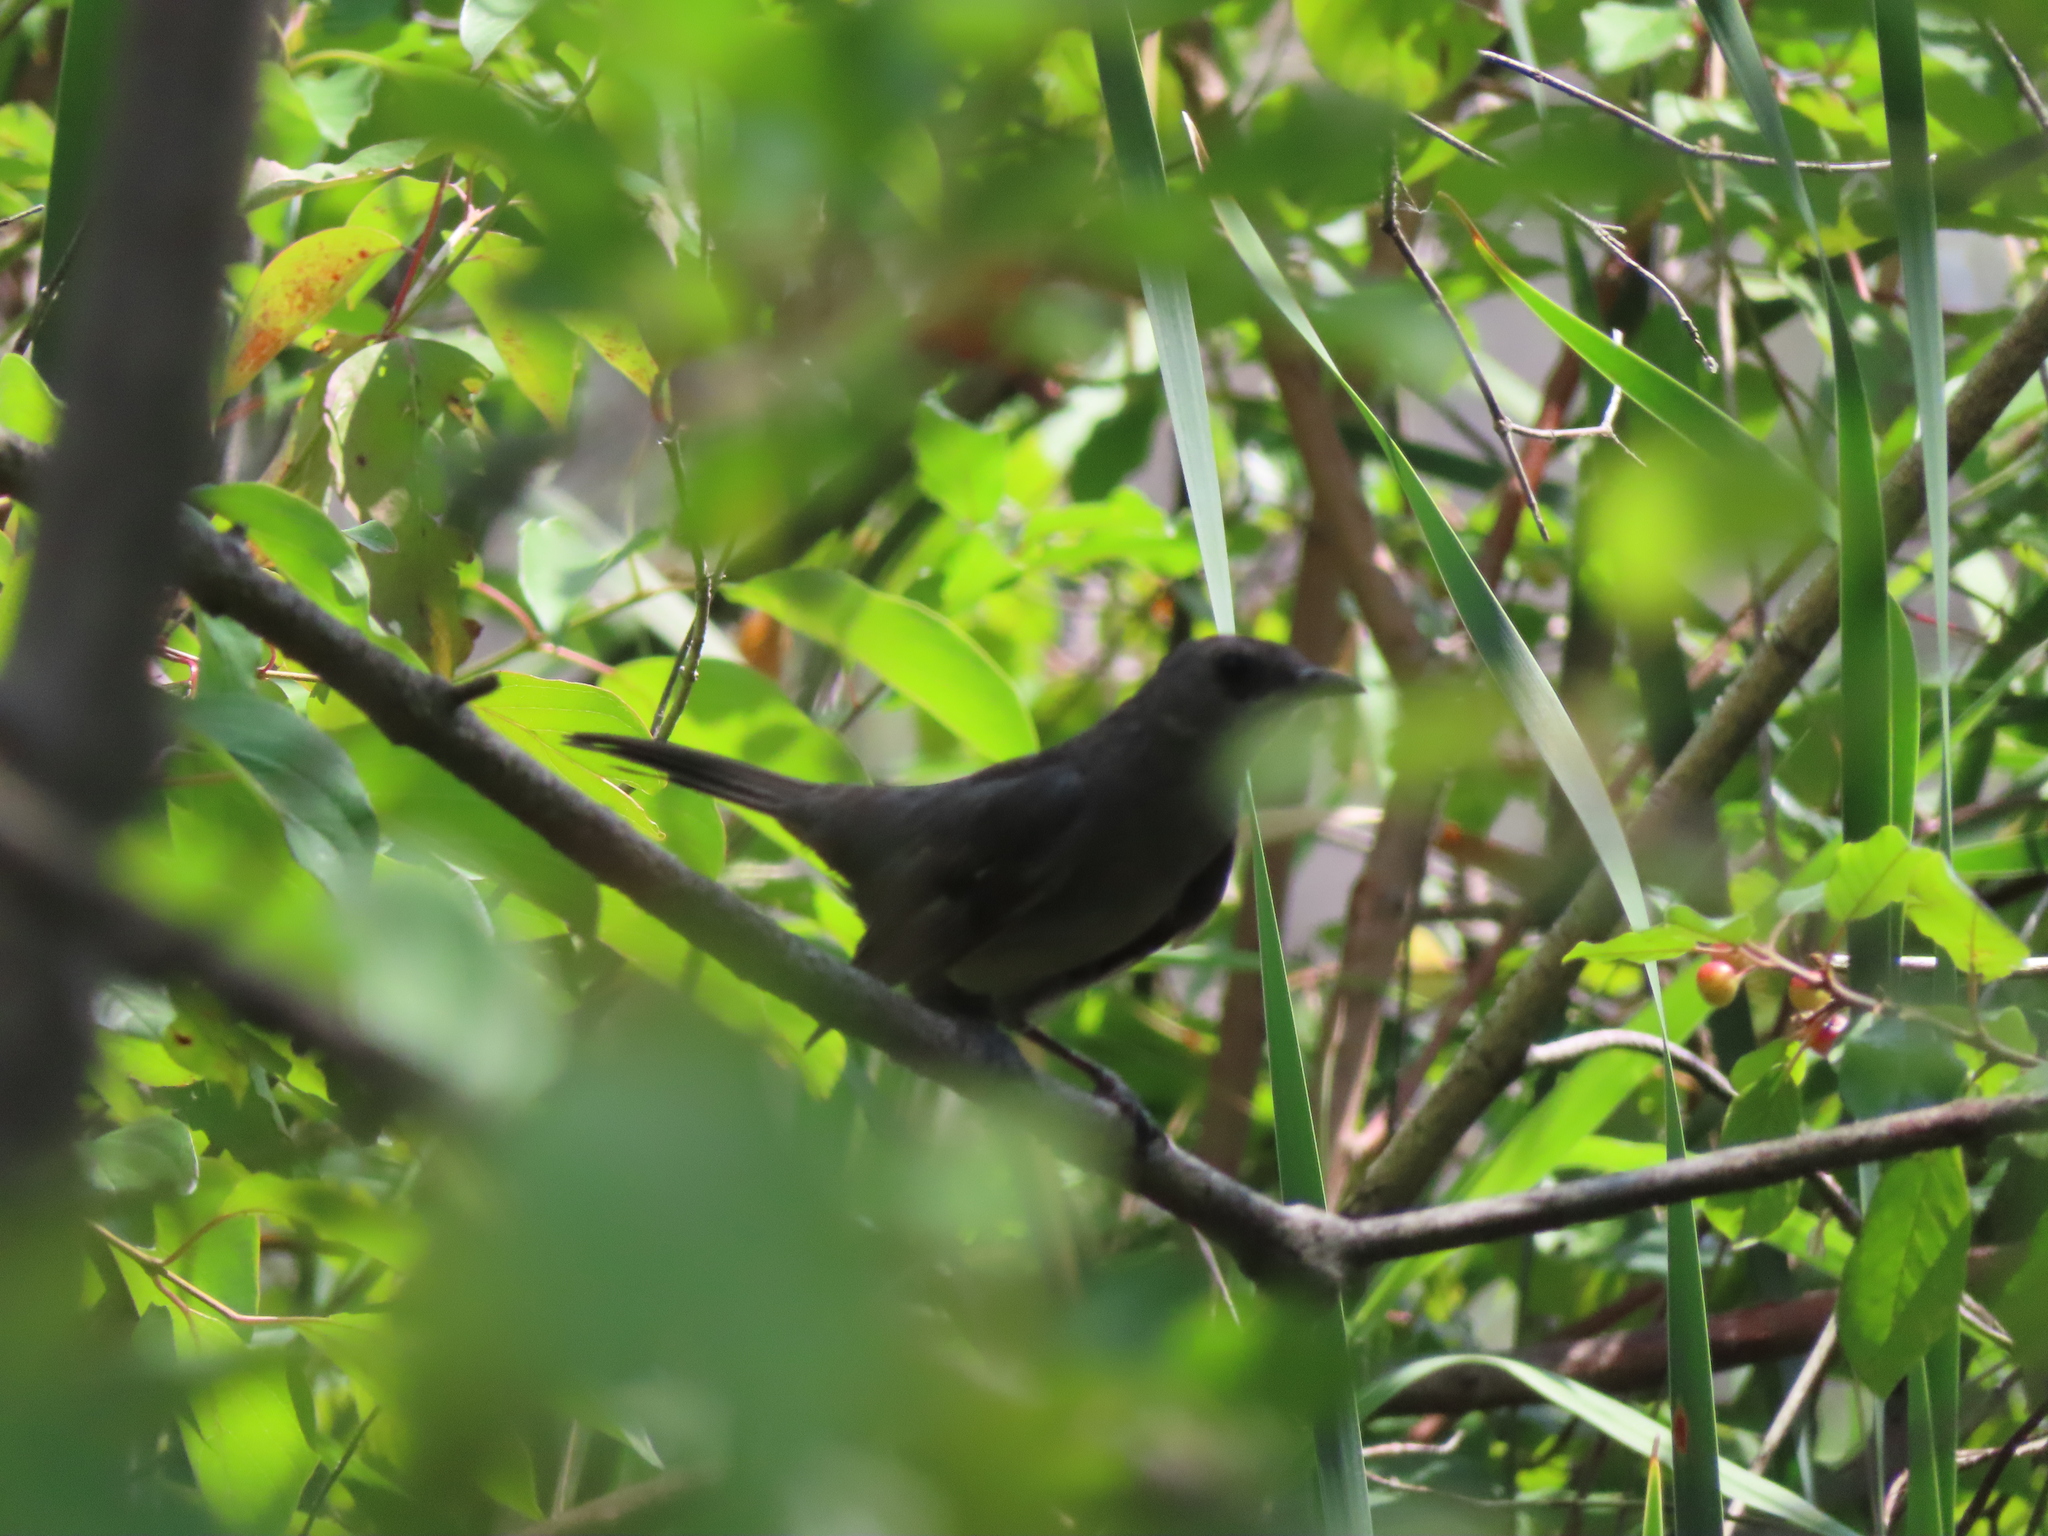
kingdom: Animalia
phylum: Chordata
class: Aves
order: Passeriformes
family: Mimidae
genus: Dumetella
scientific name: Dumetella carolinensis
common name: Gray catbird
